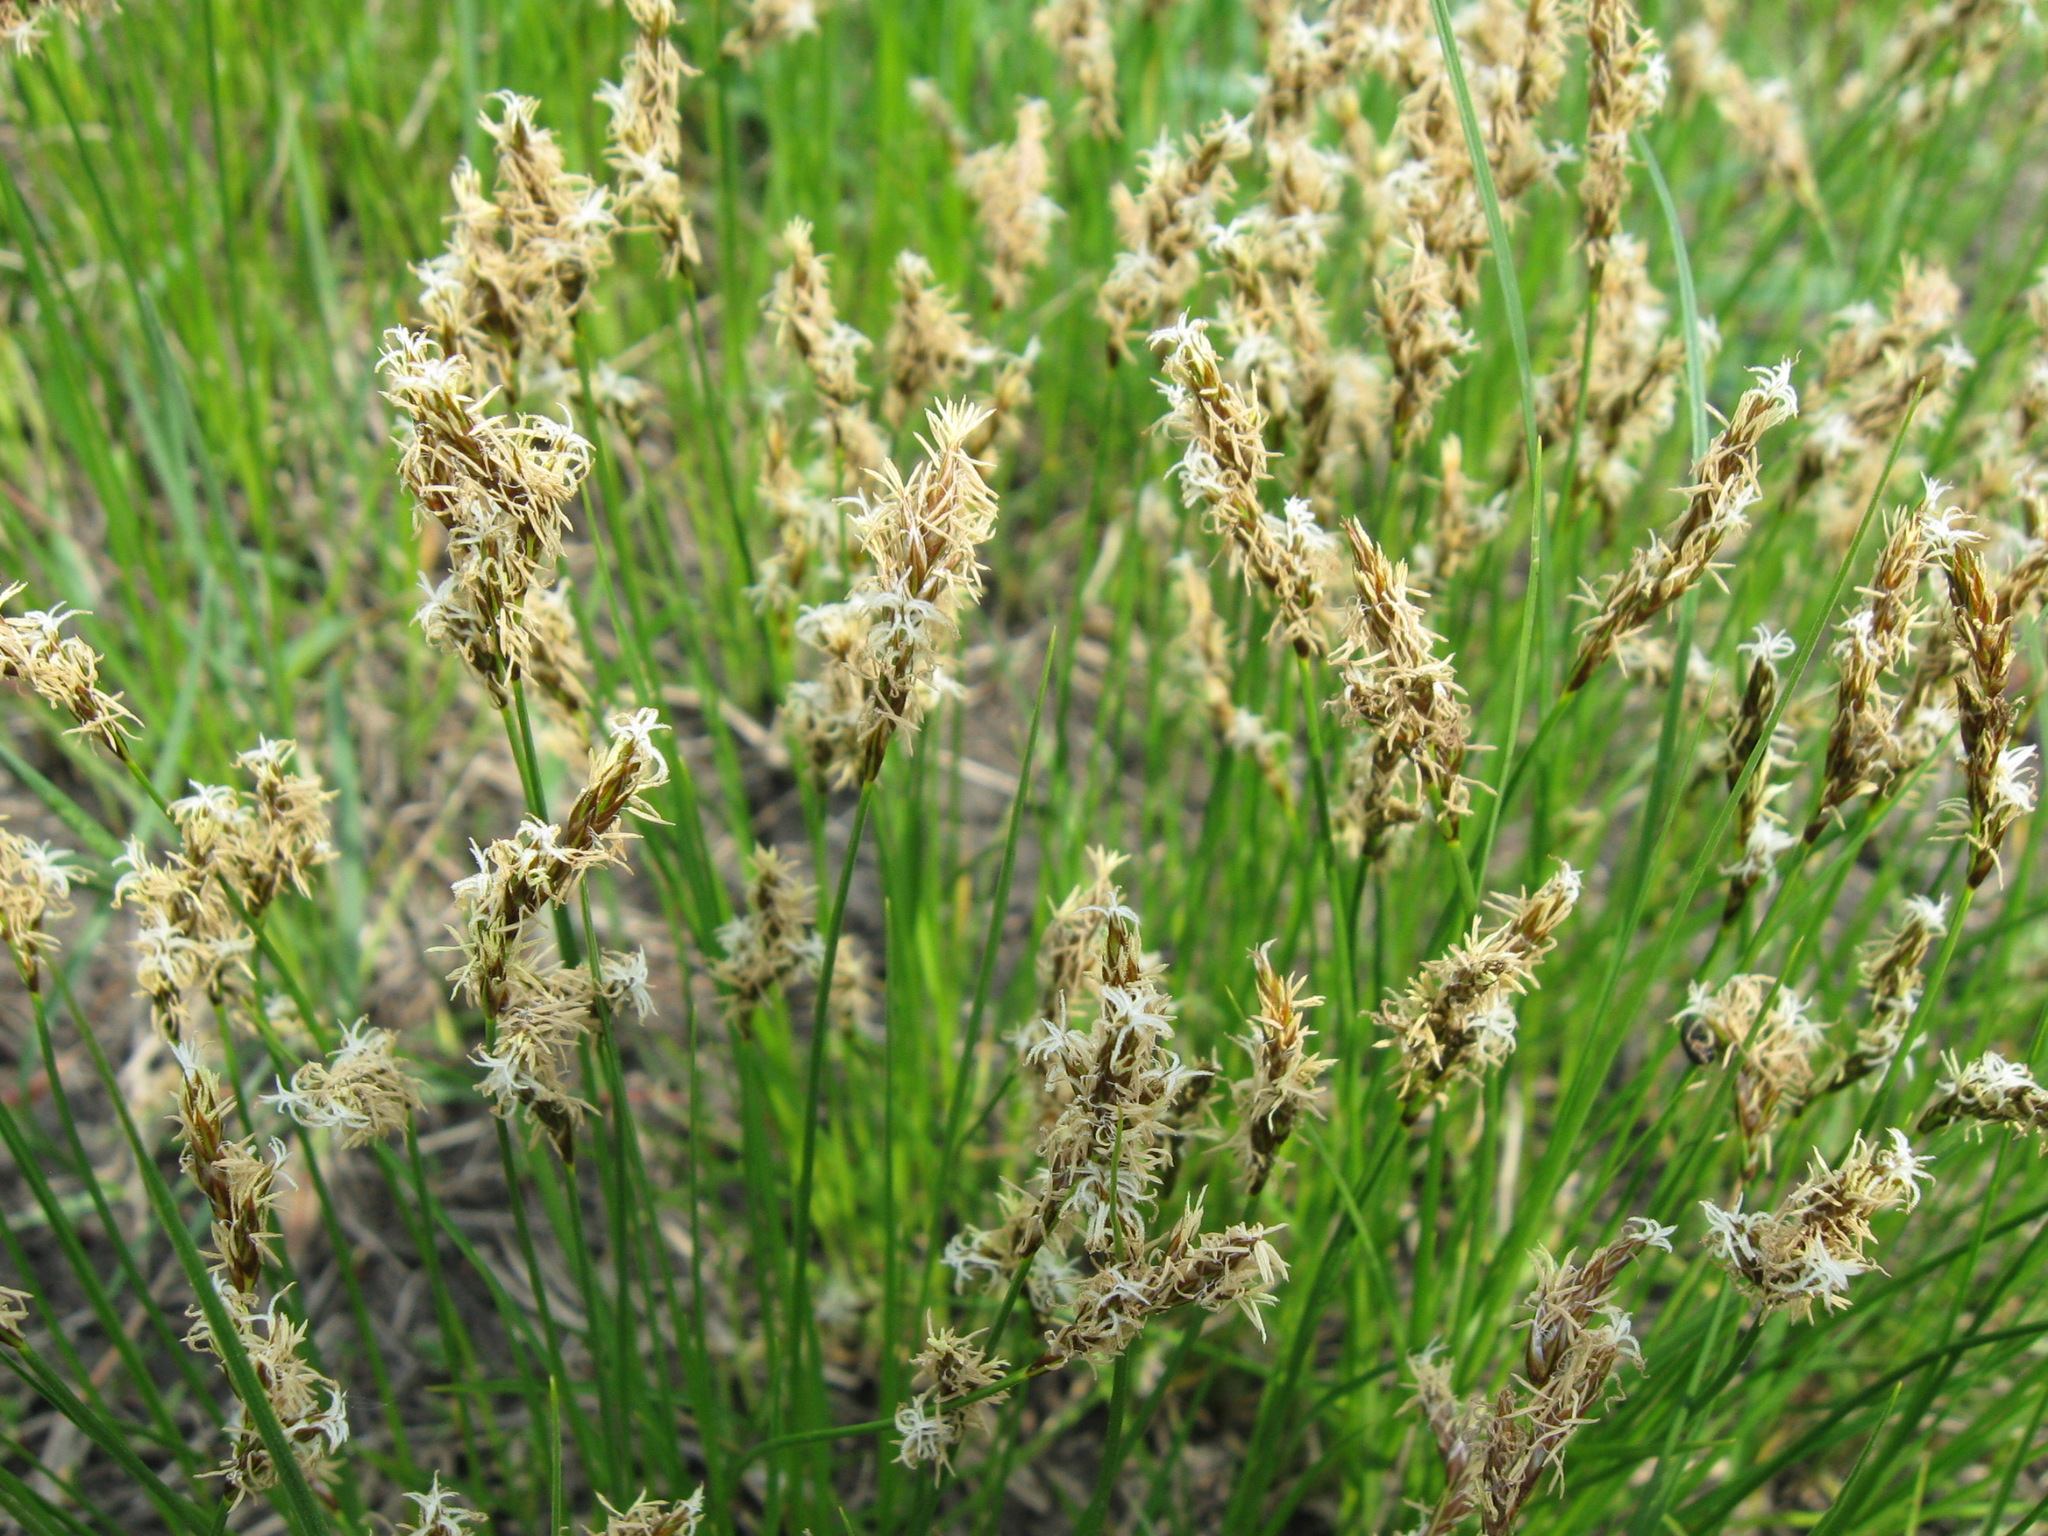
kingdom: Plantae
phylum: Tracheophyta
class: Liliopsida
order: Poales
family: Cyperaceae
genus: Carex
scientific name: Carex praecox
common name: Early sedge
